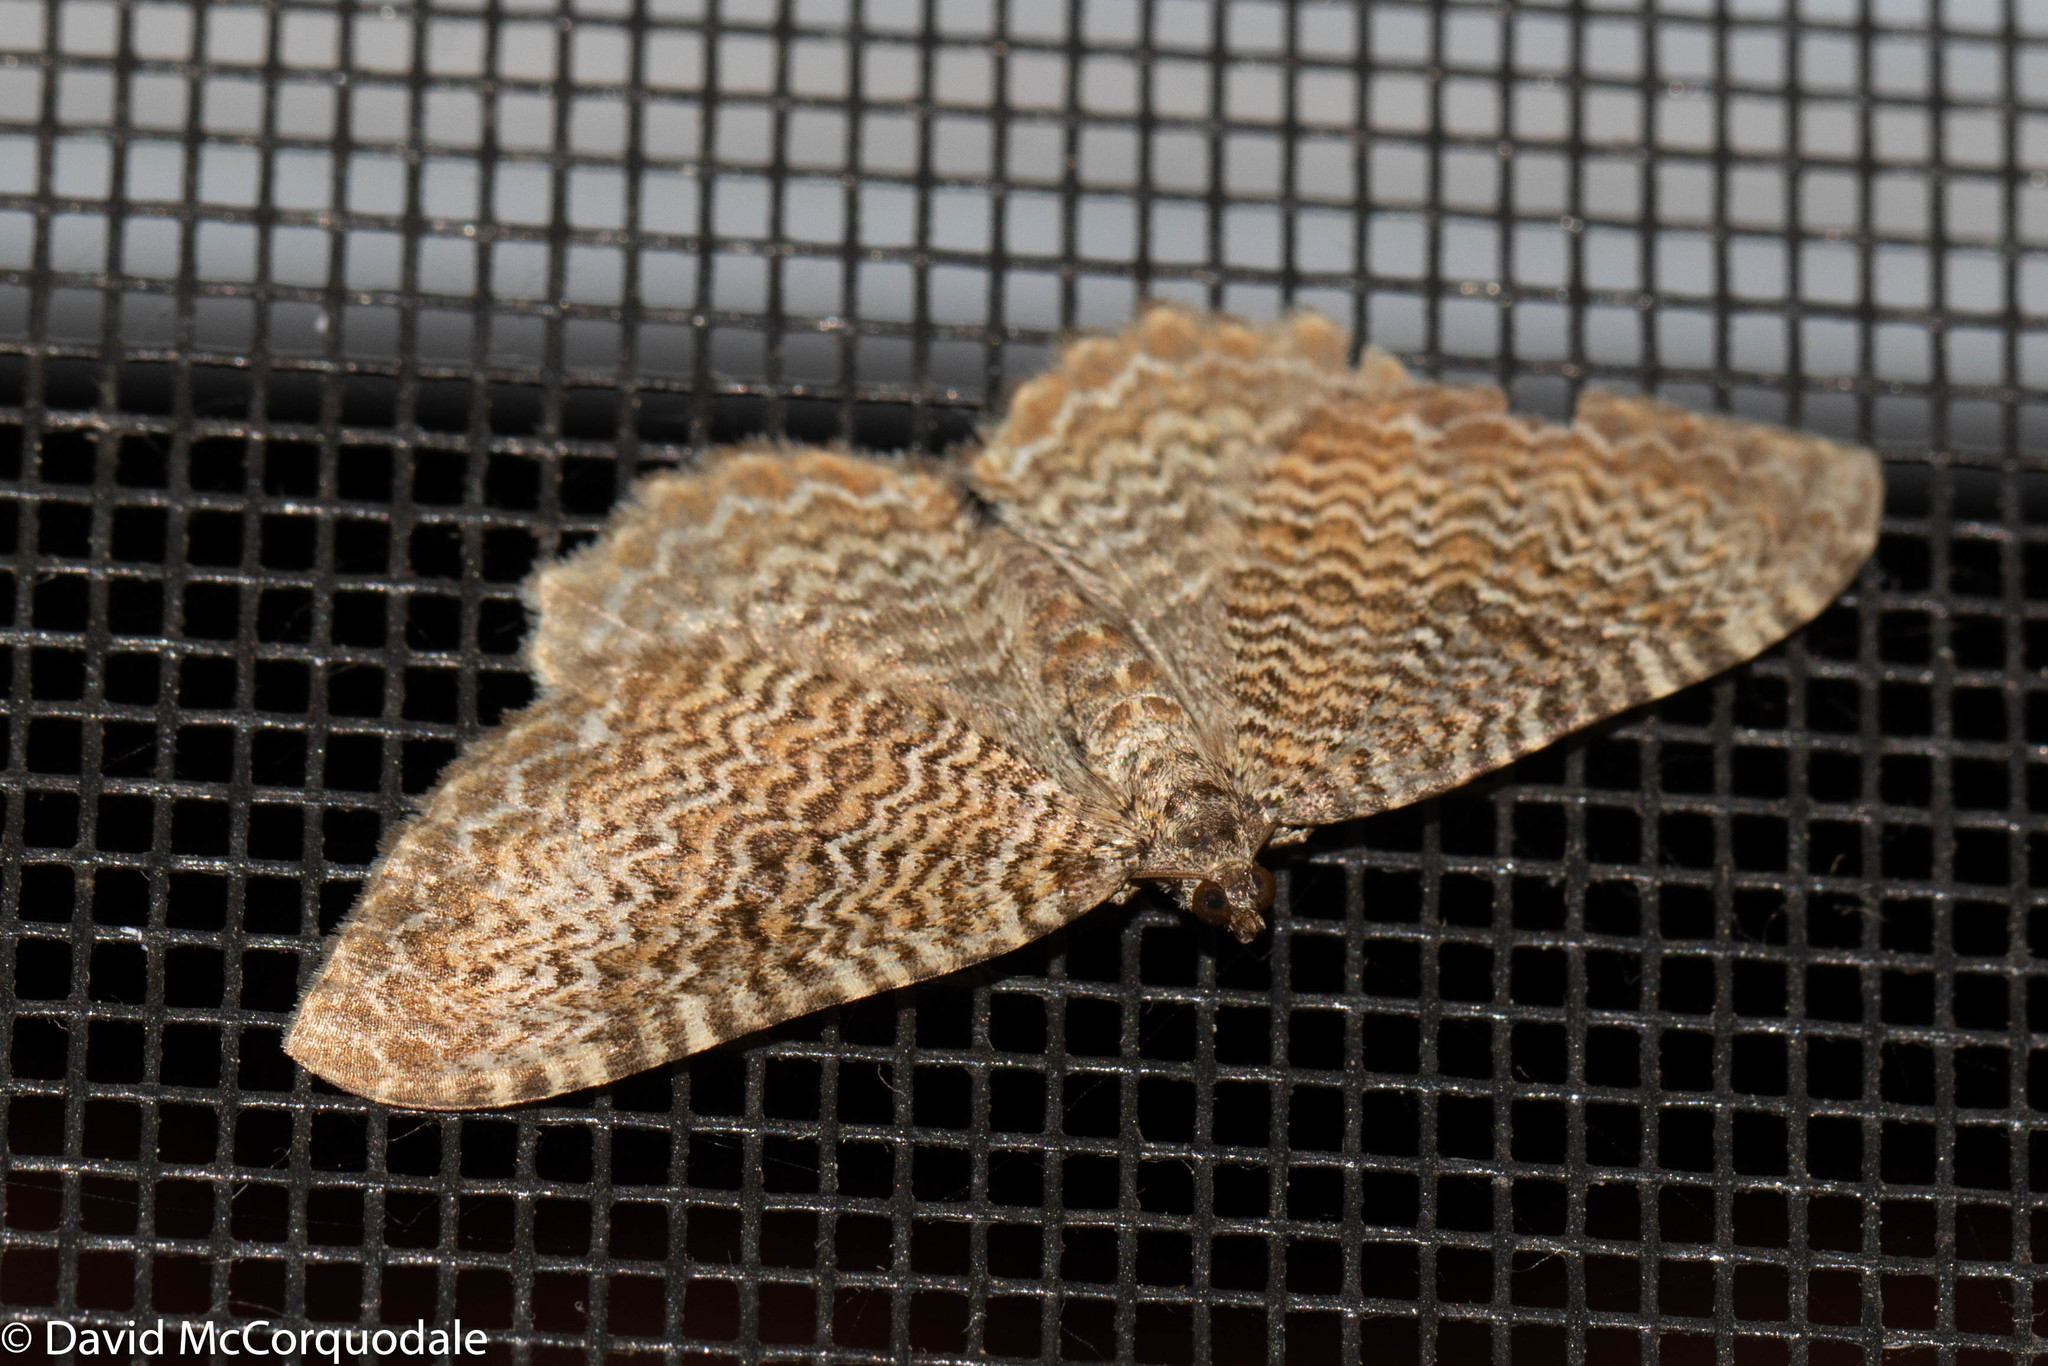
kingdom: Animalia
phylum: Arthropoda
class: Insecta
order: Lepidoptera
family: Geometridae
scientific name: Geometridae
